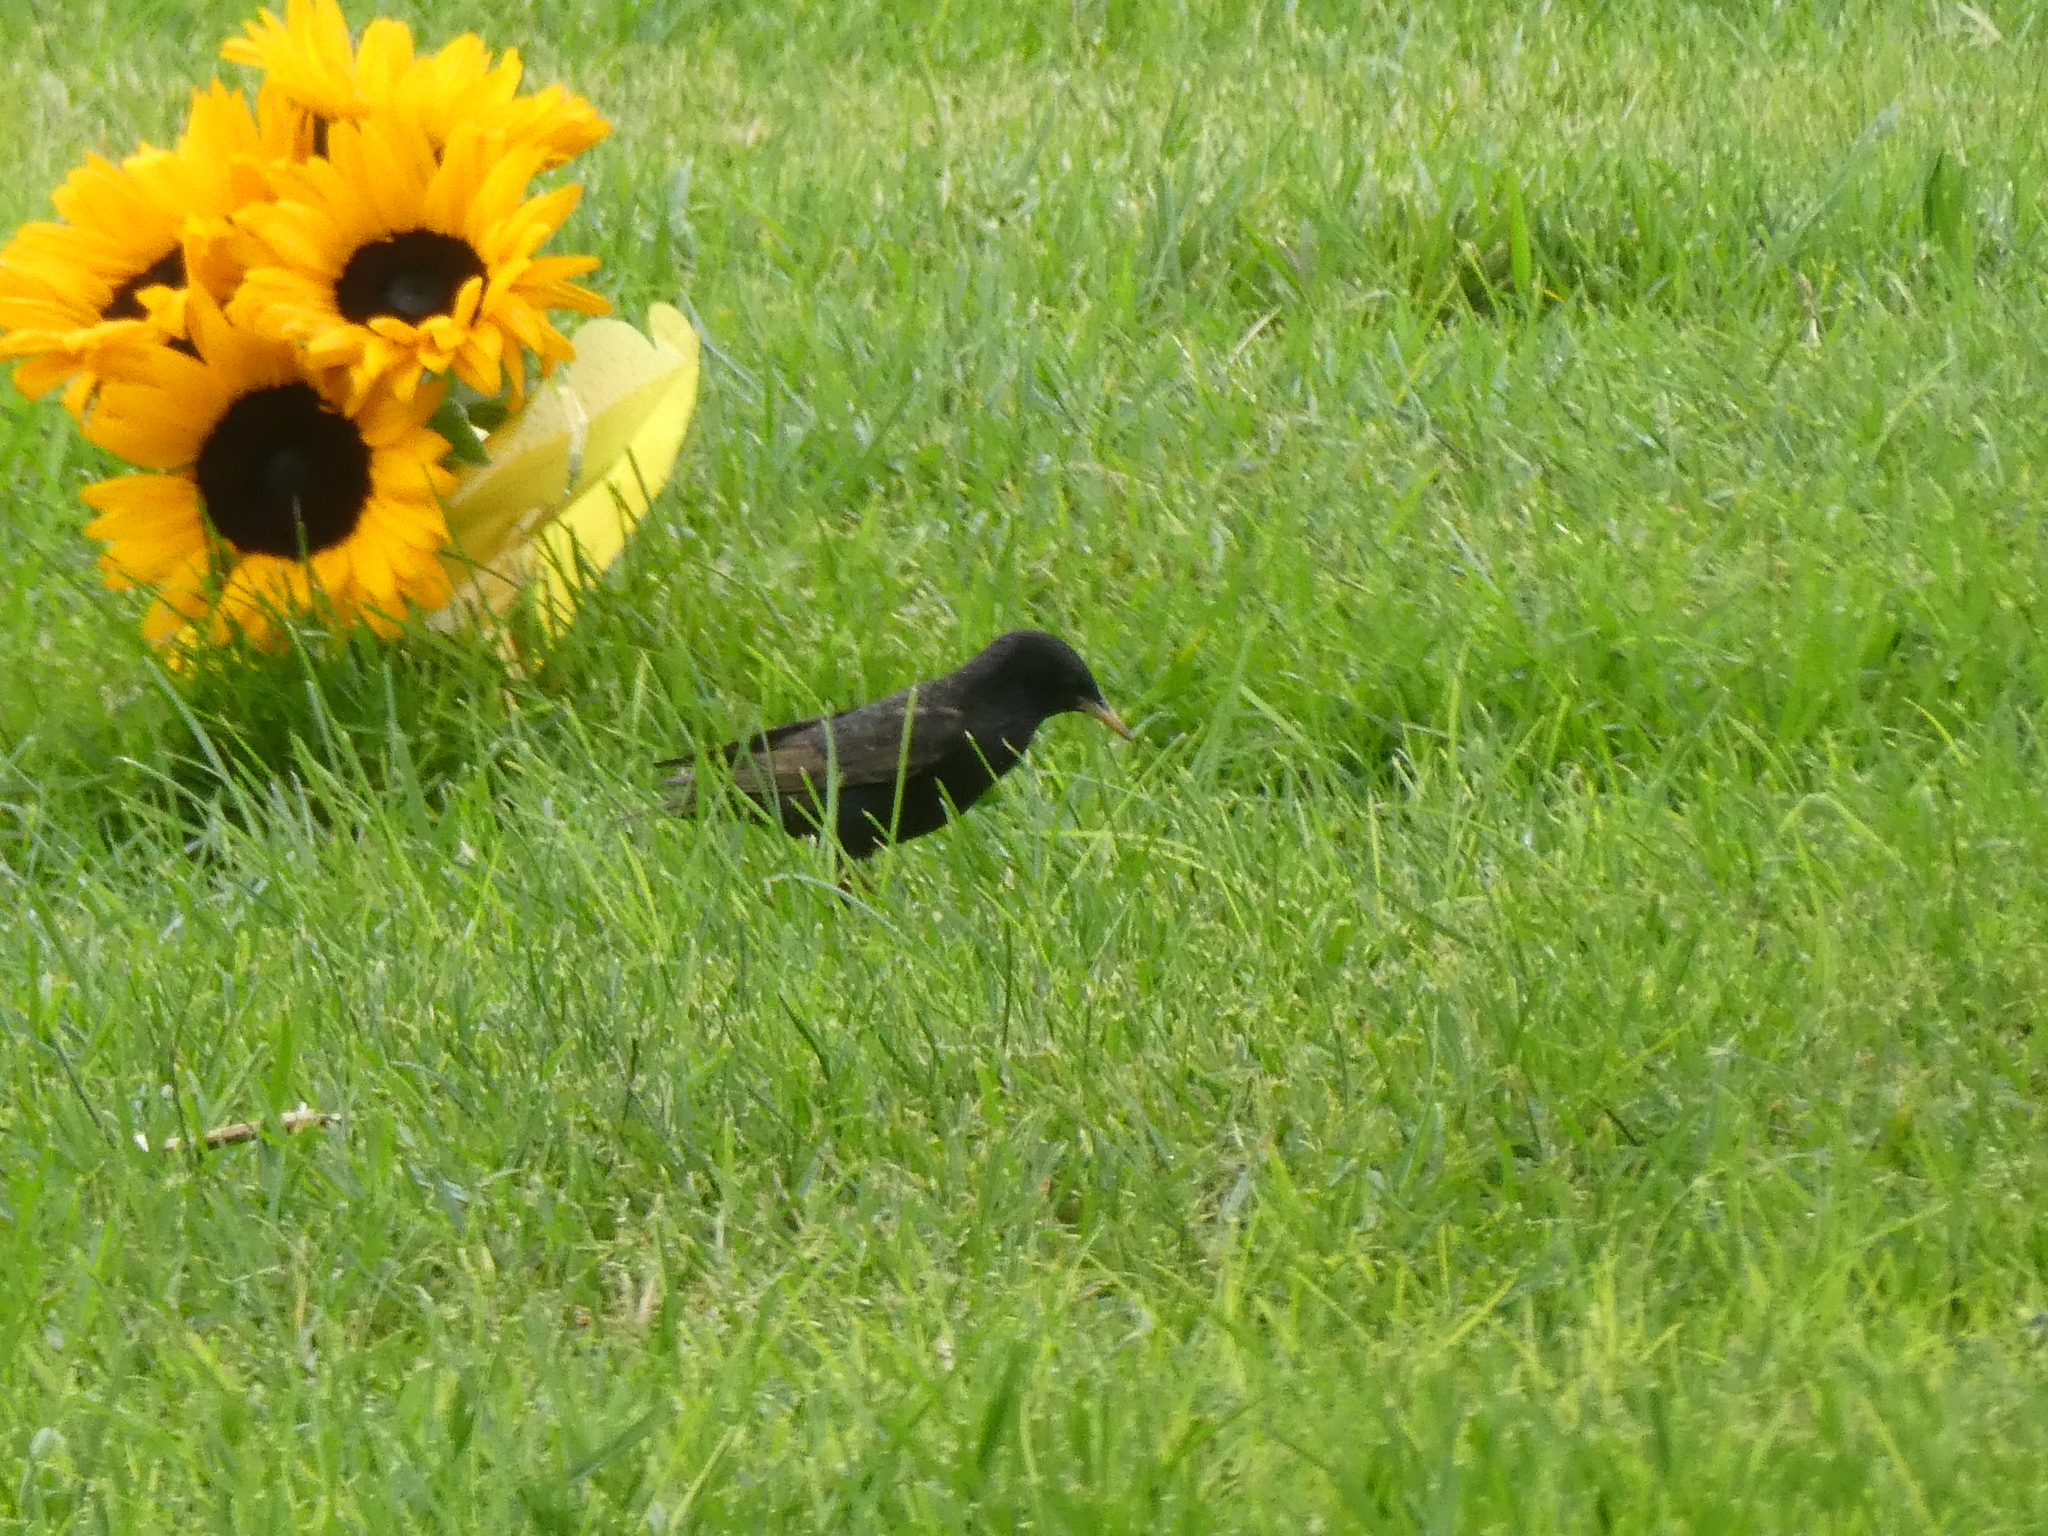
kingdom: Animalia
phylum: Chordata
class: Aves
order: Passeriformes
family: Sturnidae
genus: Sturnus
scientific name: Sturnus vulgaris
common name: Common starling
